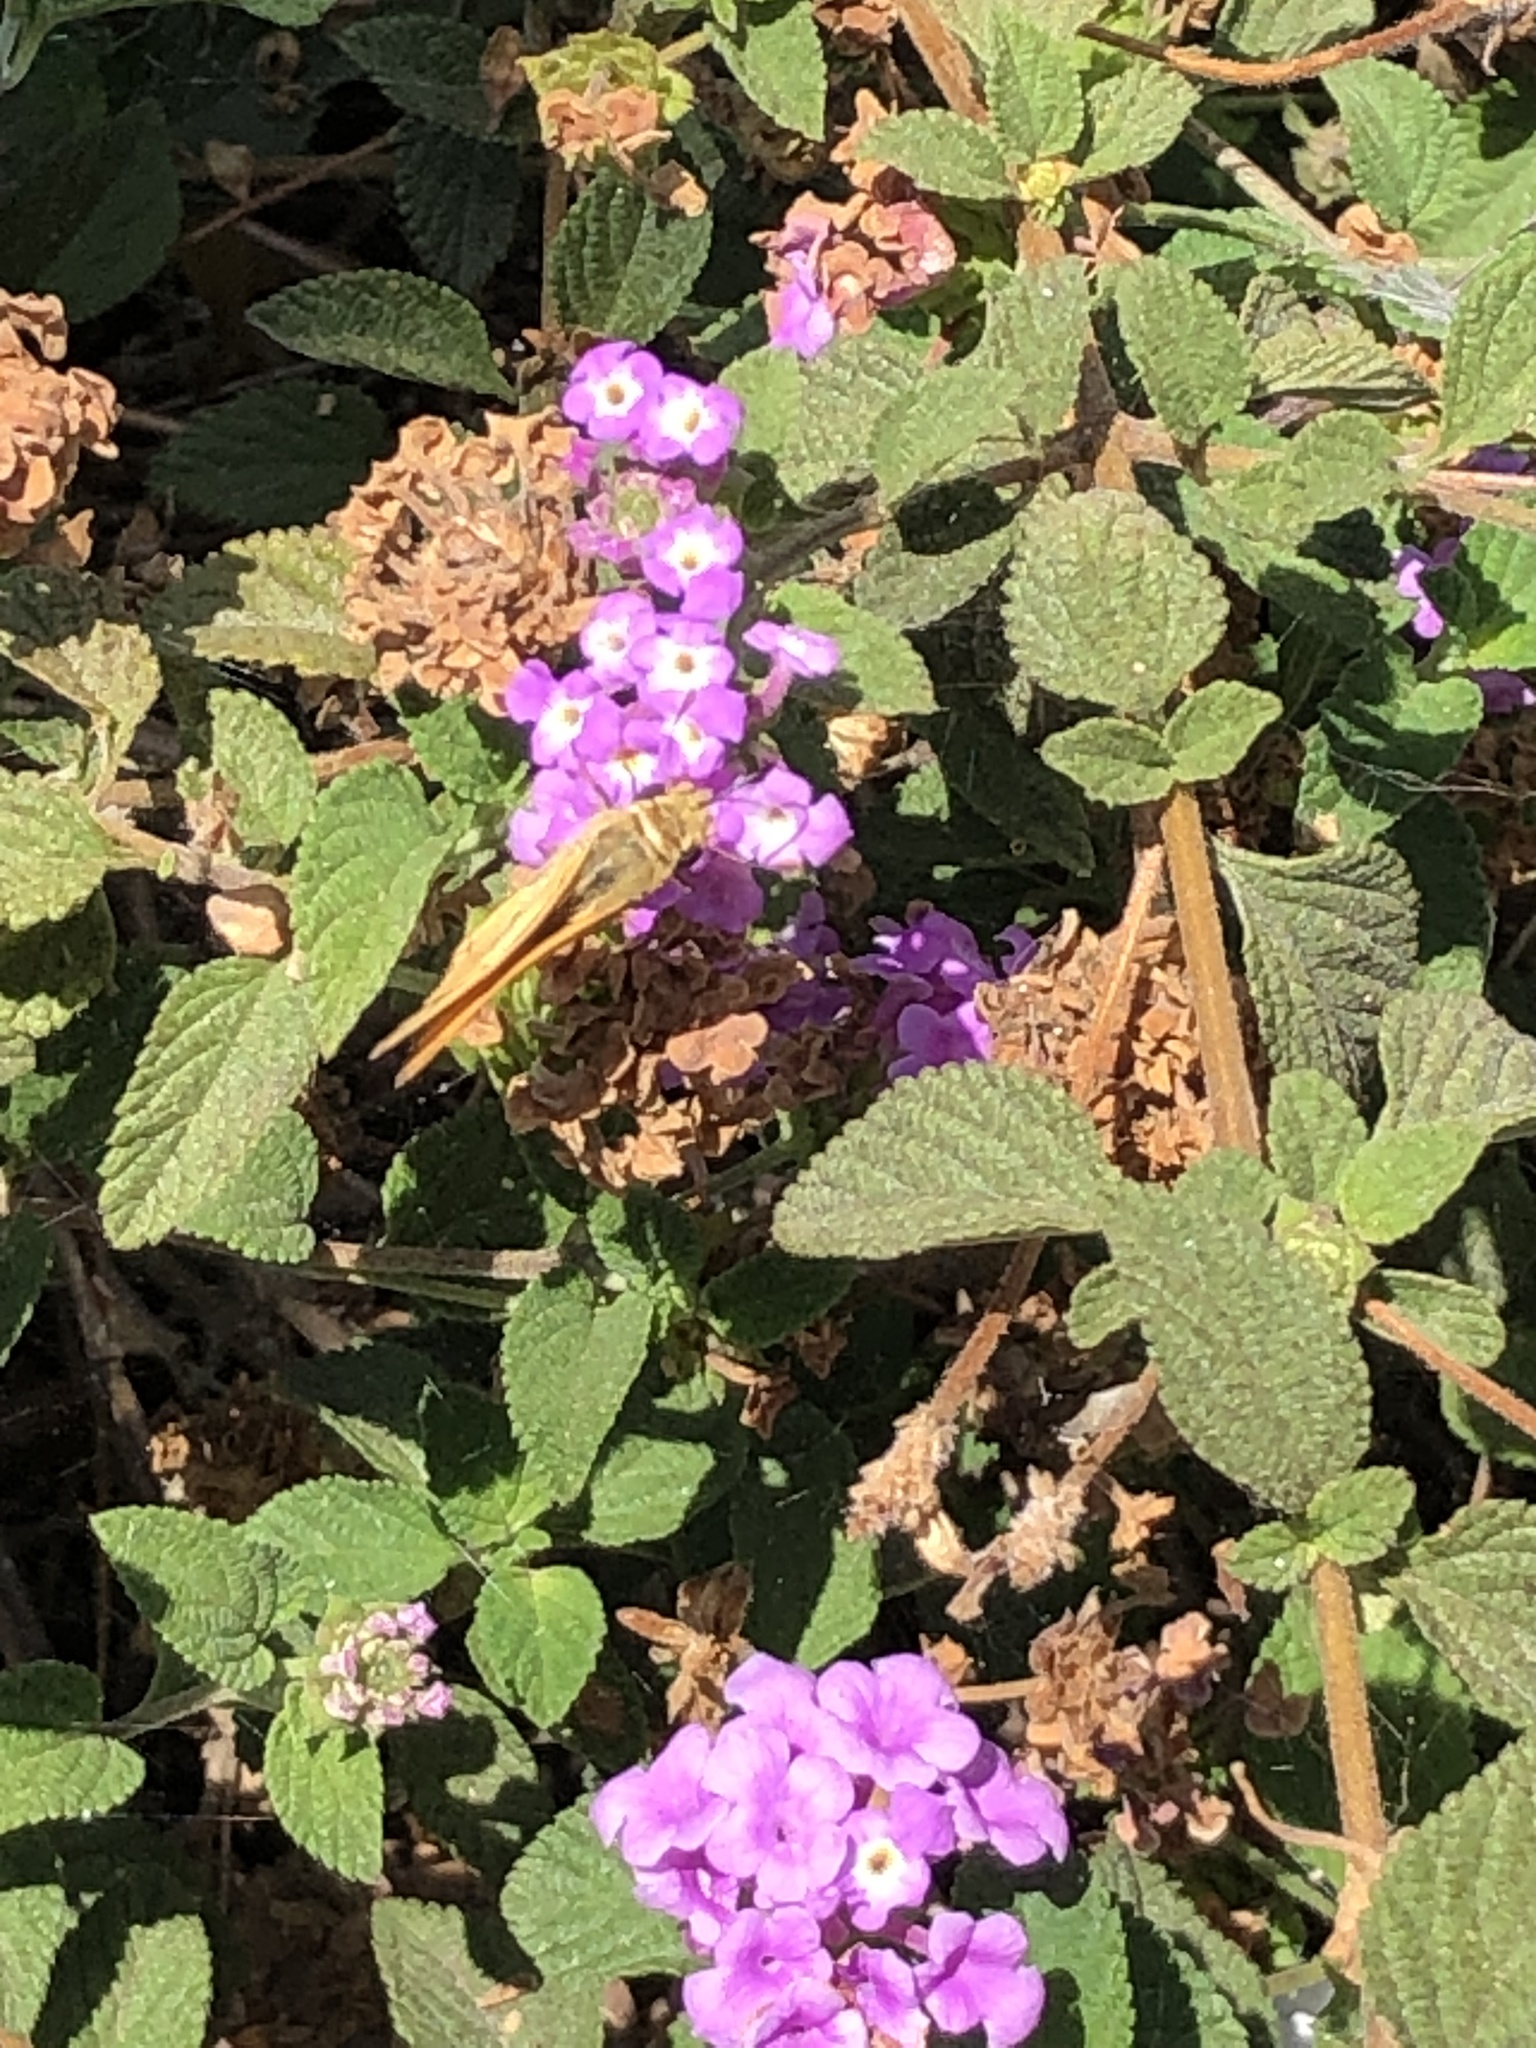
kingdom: Animalia
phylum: Arthropoda
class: Insecta
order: Lepidoptera
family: Hesperiidae
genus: Hylephila
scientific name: Hylephila phyleus
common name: Fiery skipper
